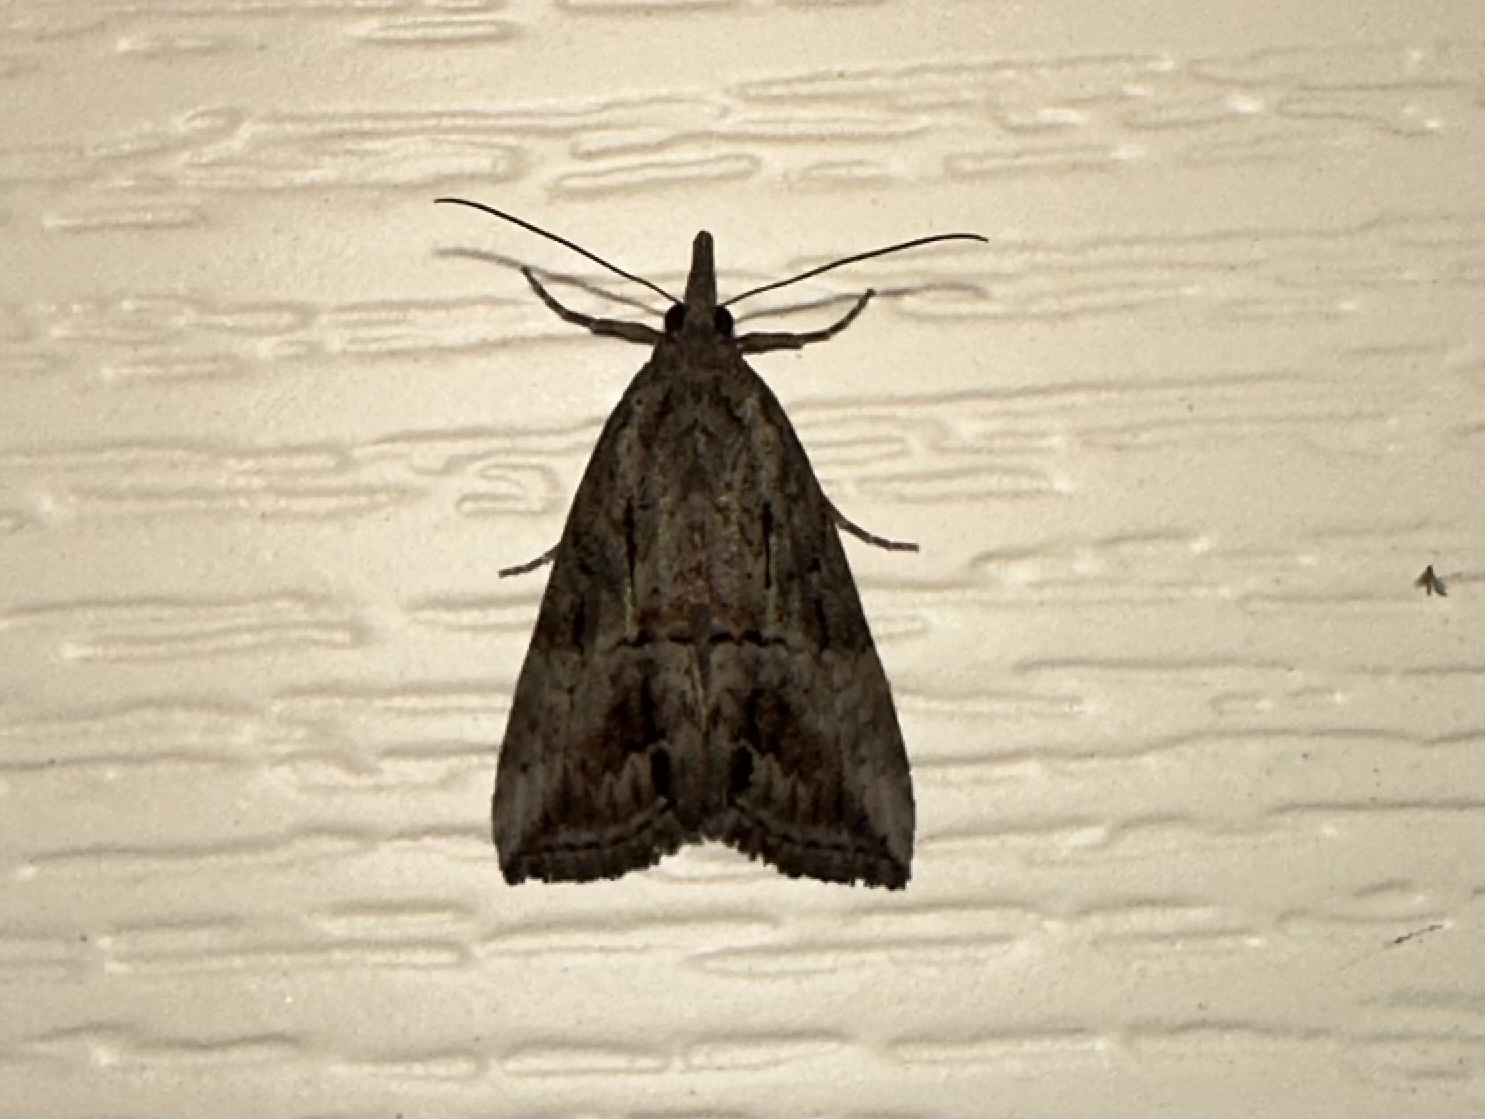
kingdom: Animalia
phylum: Arthropoda
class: Insecta
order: Lepidoptera
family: Erebidae
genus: Hypena
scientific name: Hypena scabra
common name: Green cloverworm
